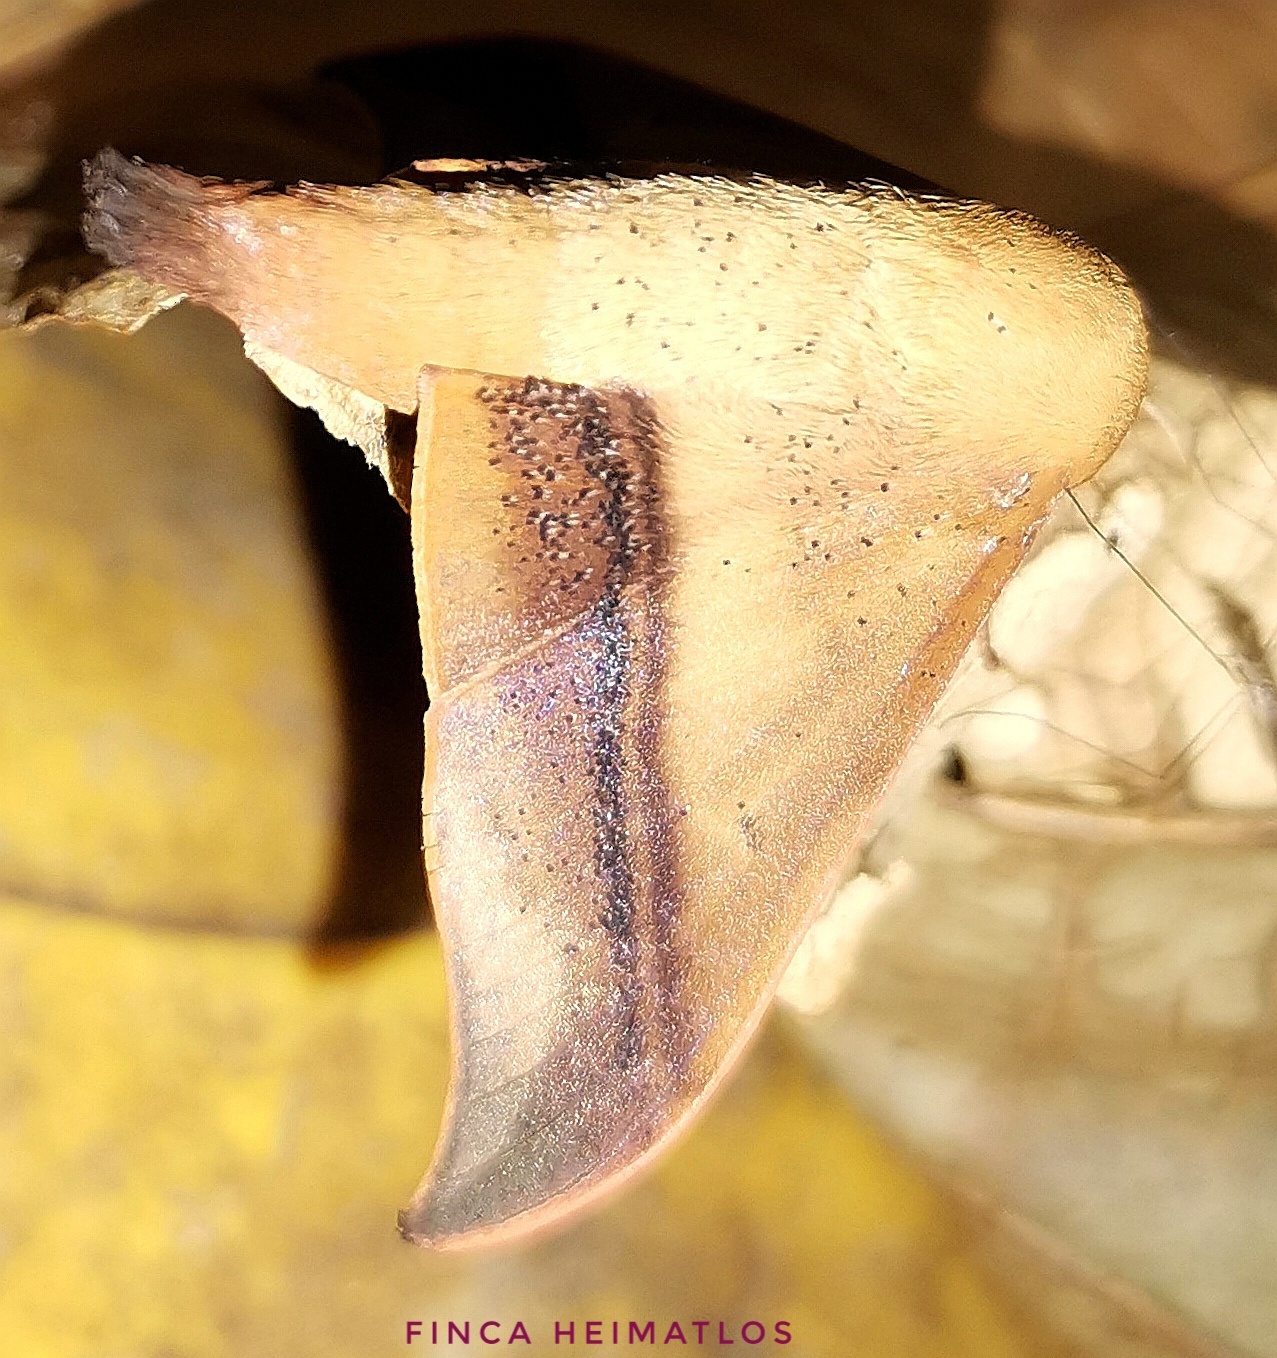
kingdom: Animalia
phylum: Arthropoda
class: Insecta
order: Lepidoptera
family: Mimallonidae
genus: Cicinnus
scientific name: Cicinnus joanna
